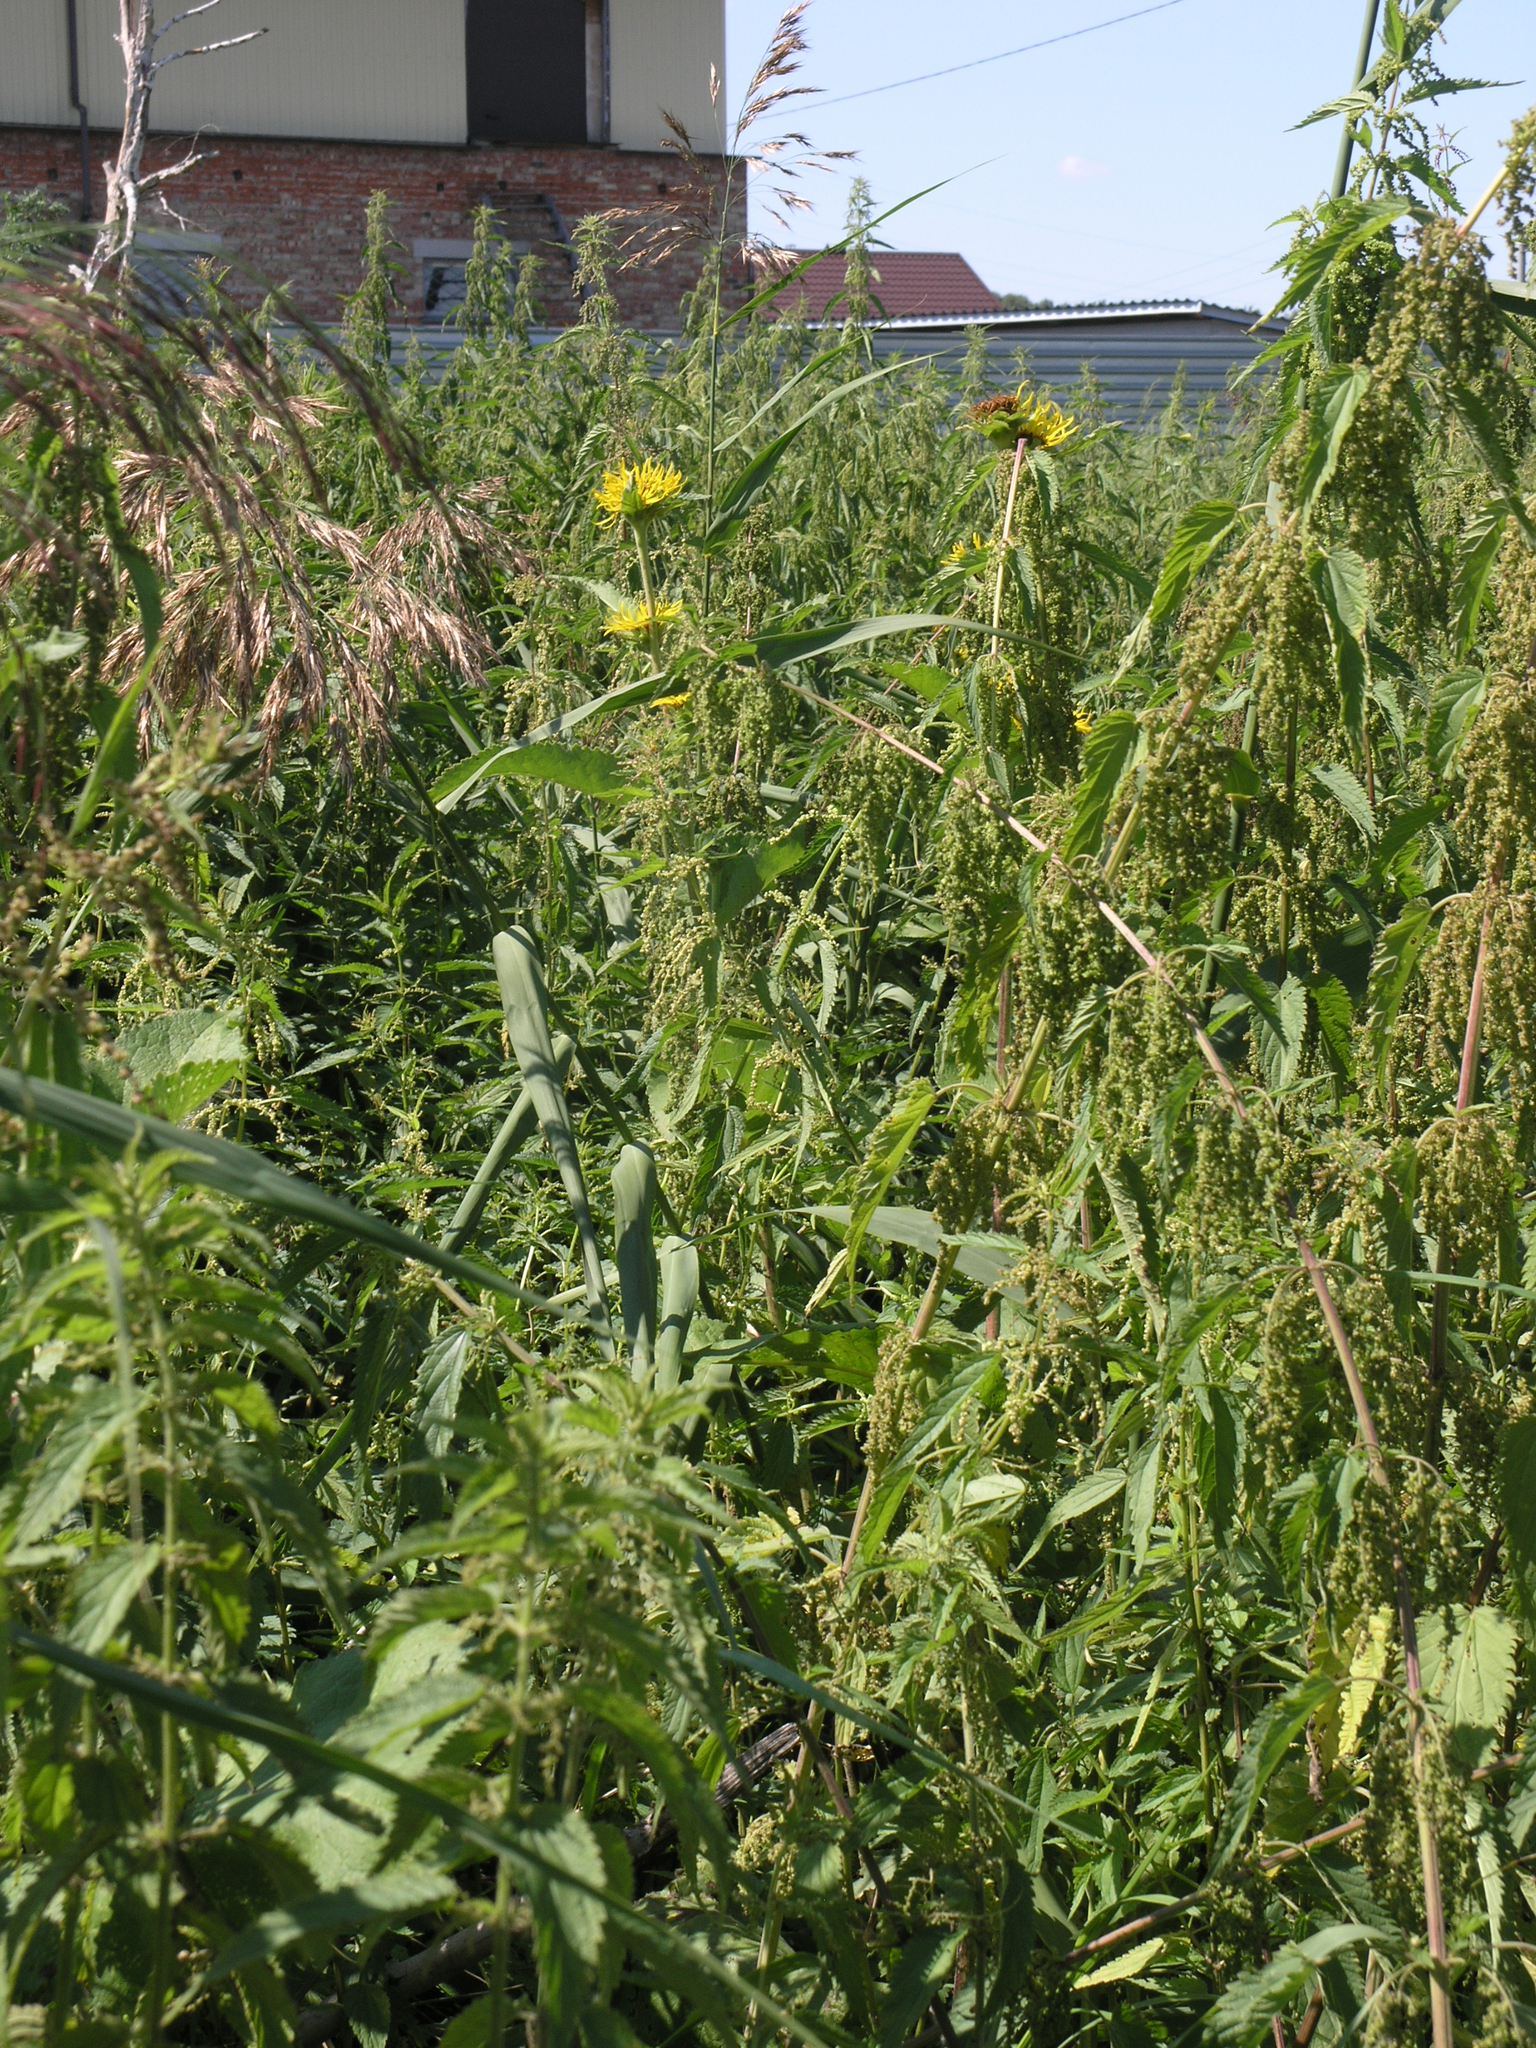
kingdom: Plantae
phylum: Tracheophyta
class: Magnoliopsida
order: Asterales
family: Asteraceae
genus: Inula
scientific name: Inula helenium
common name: Elecampane
